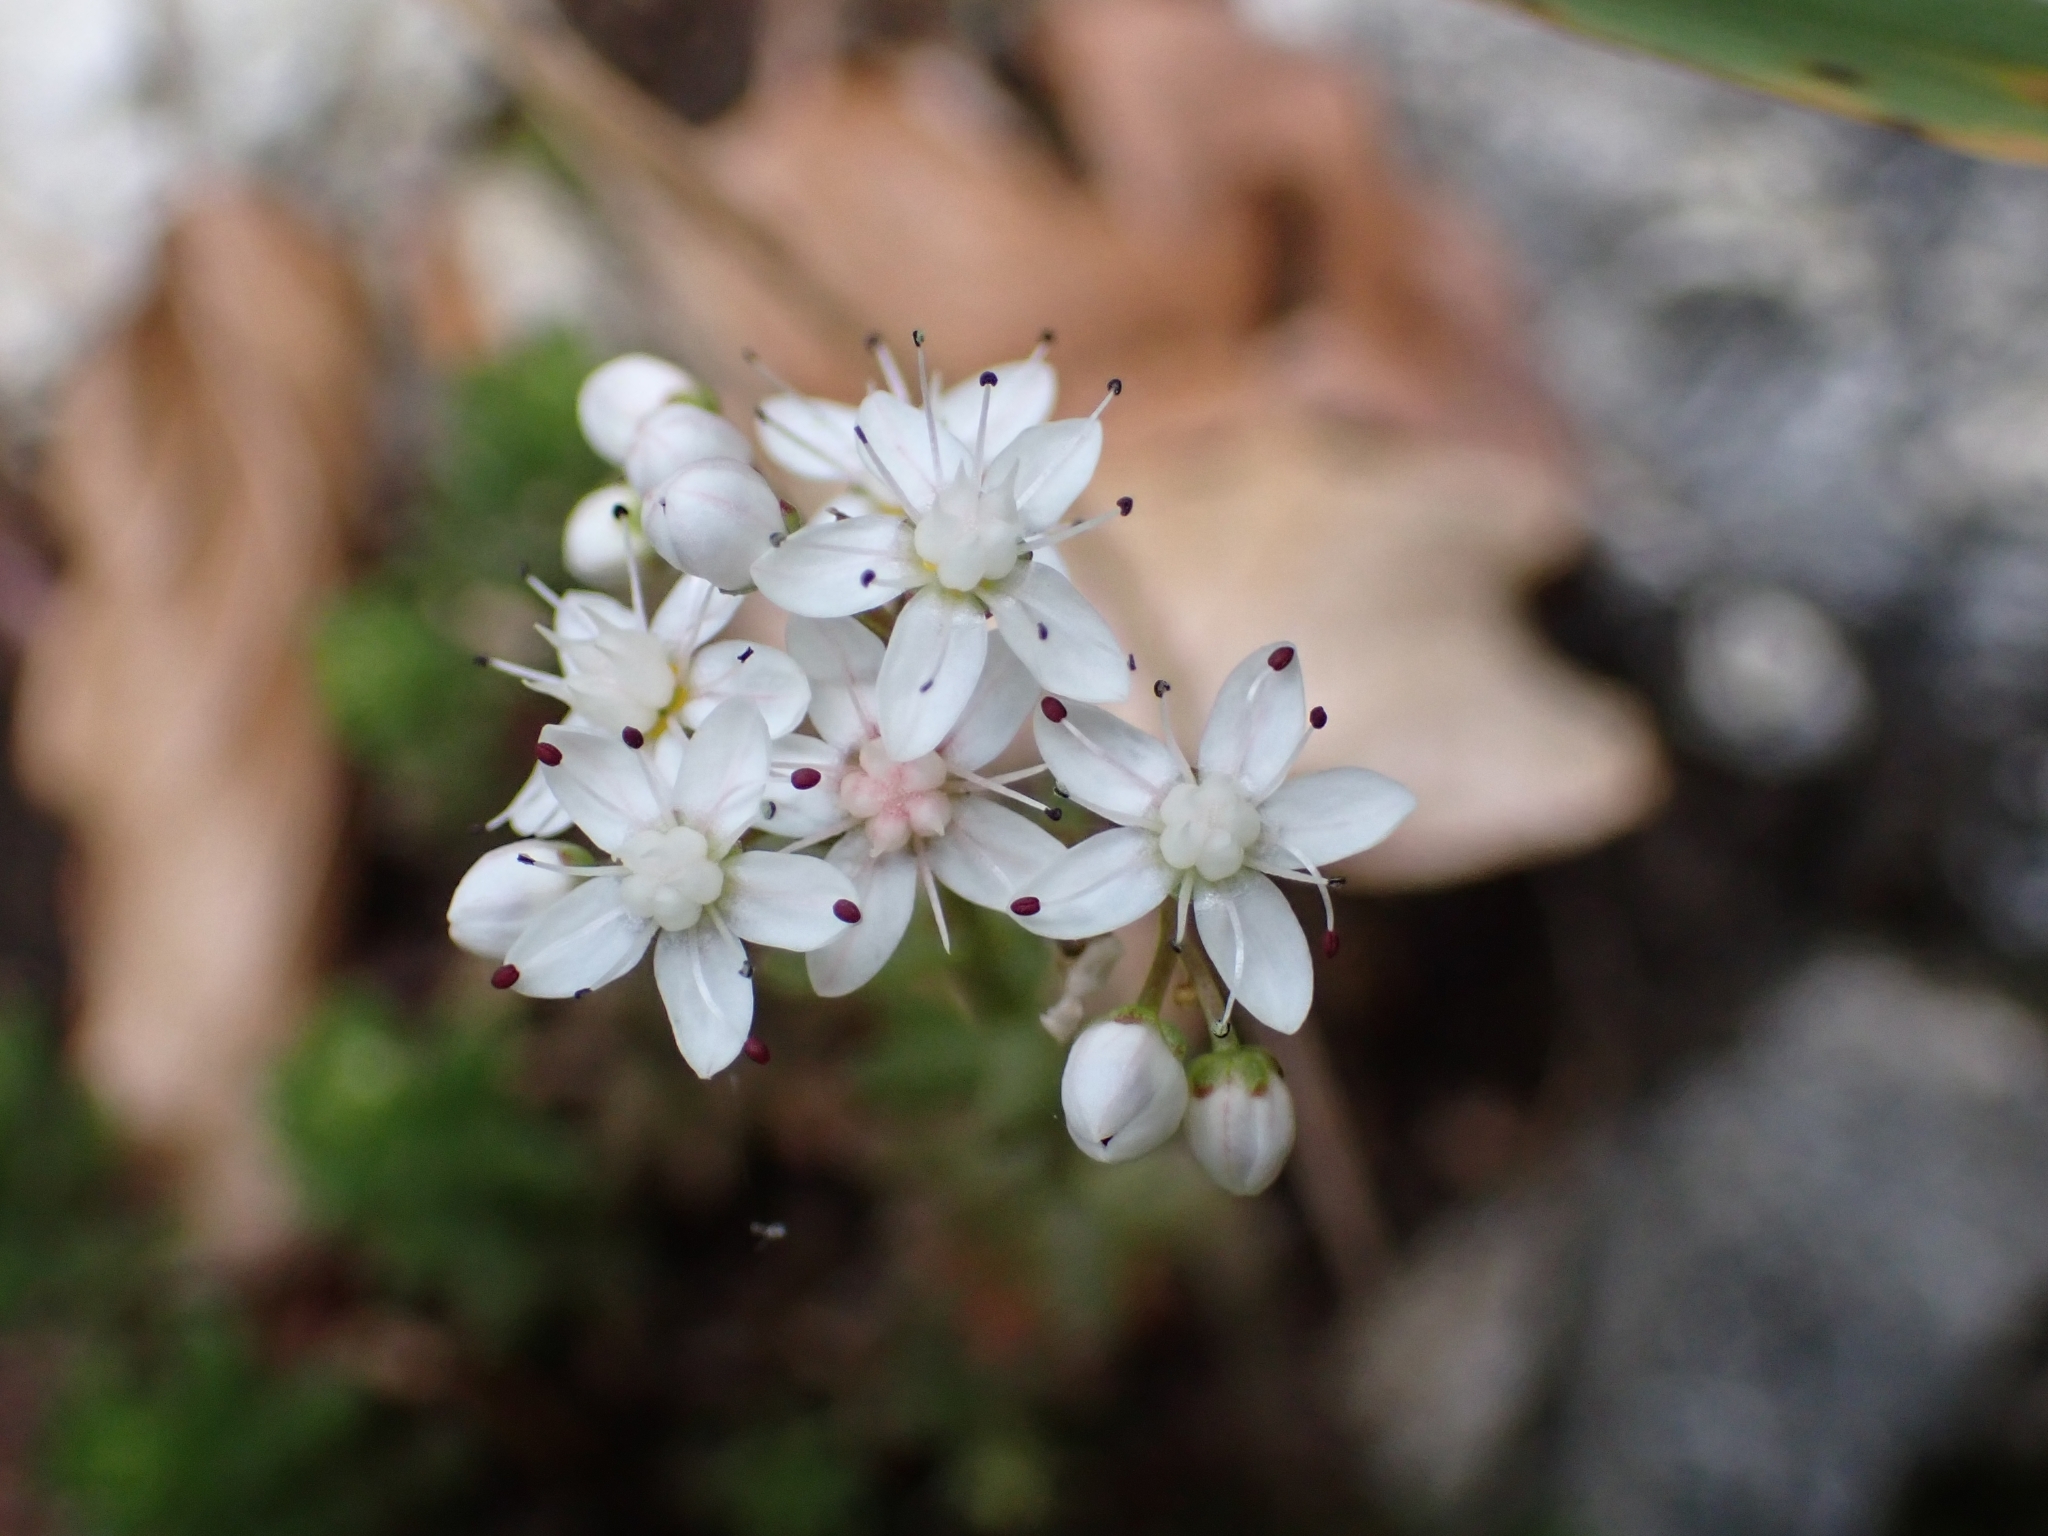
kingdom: Plantae
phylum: Tracheophyta
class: Magnoliopsida
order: Saxifragales
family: Crassulaceae
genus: Sedum
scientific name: Sedum album
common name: White stonecrop
